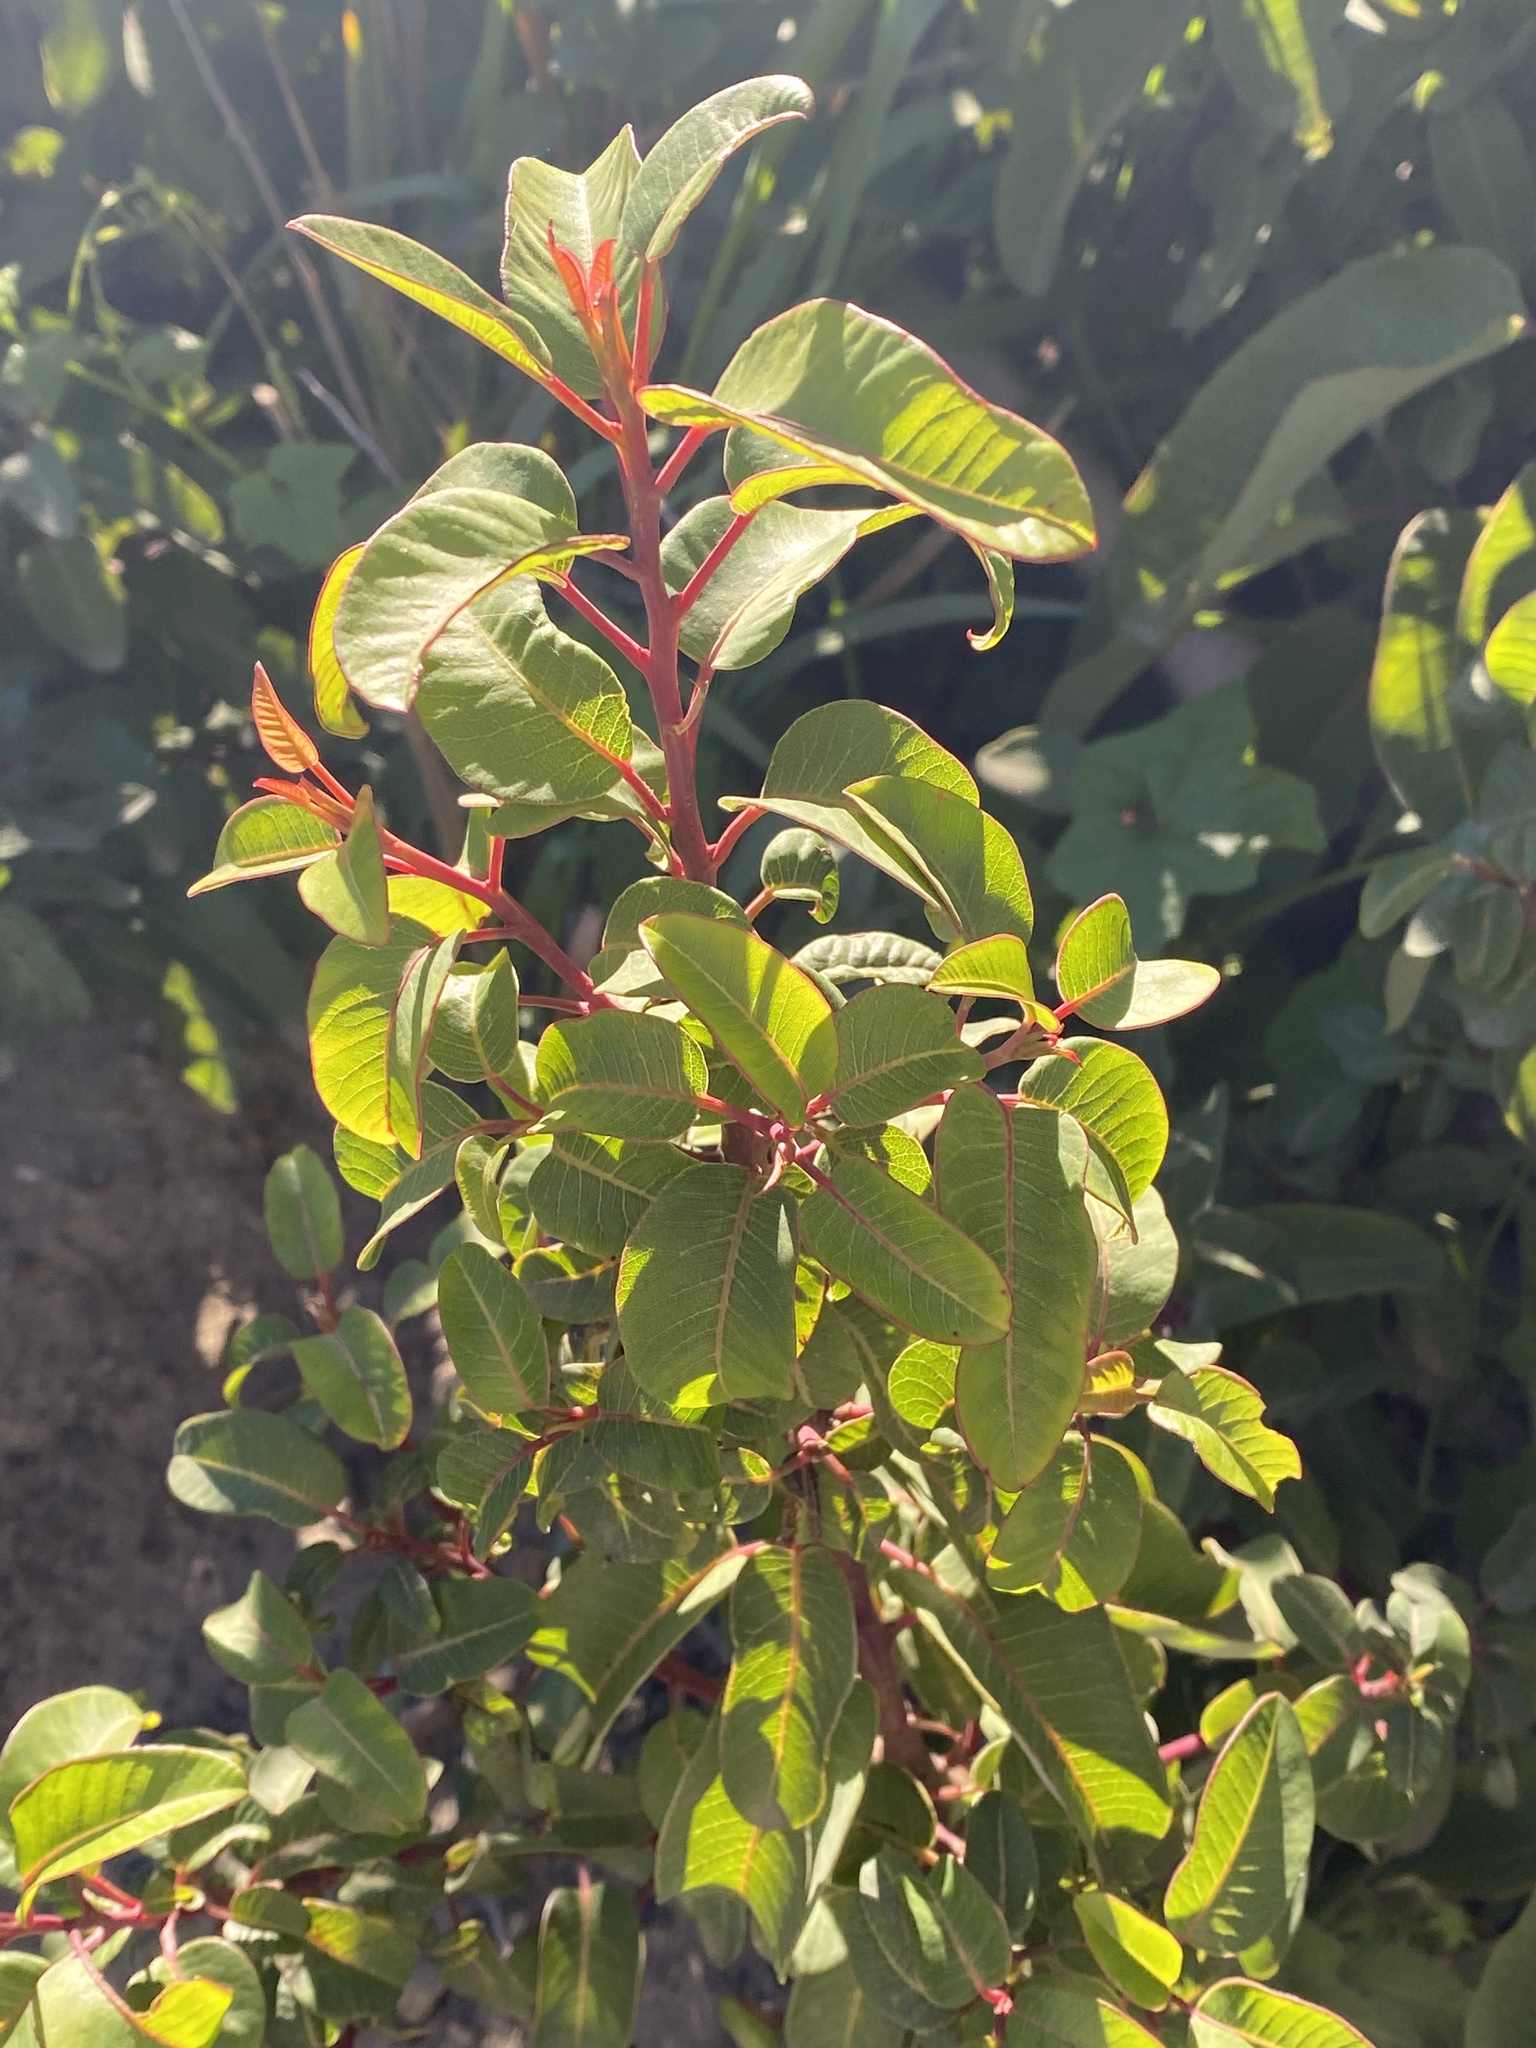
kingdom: Plantae
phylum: Tracheophyta
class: Magnoliopsida
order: Sapindales
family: Anacardiaceae
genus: Malosma
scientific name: Malosma laurina
